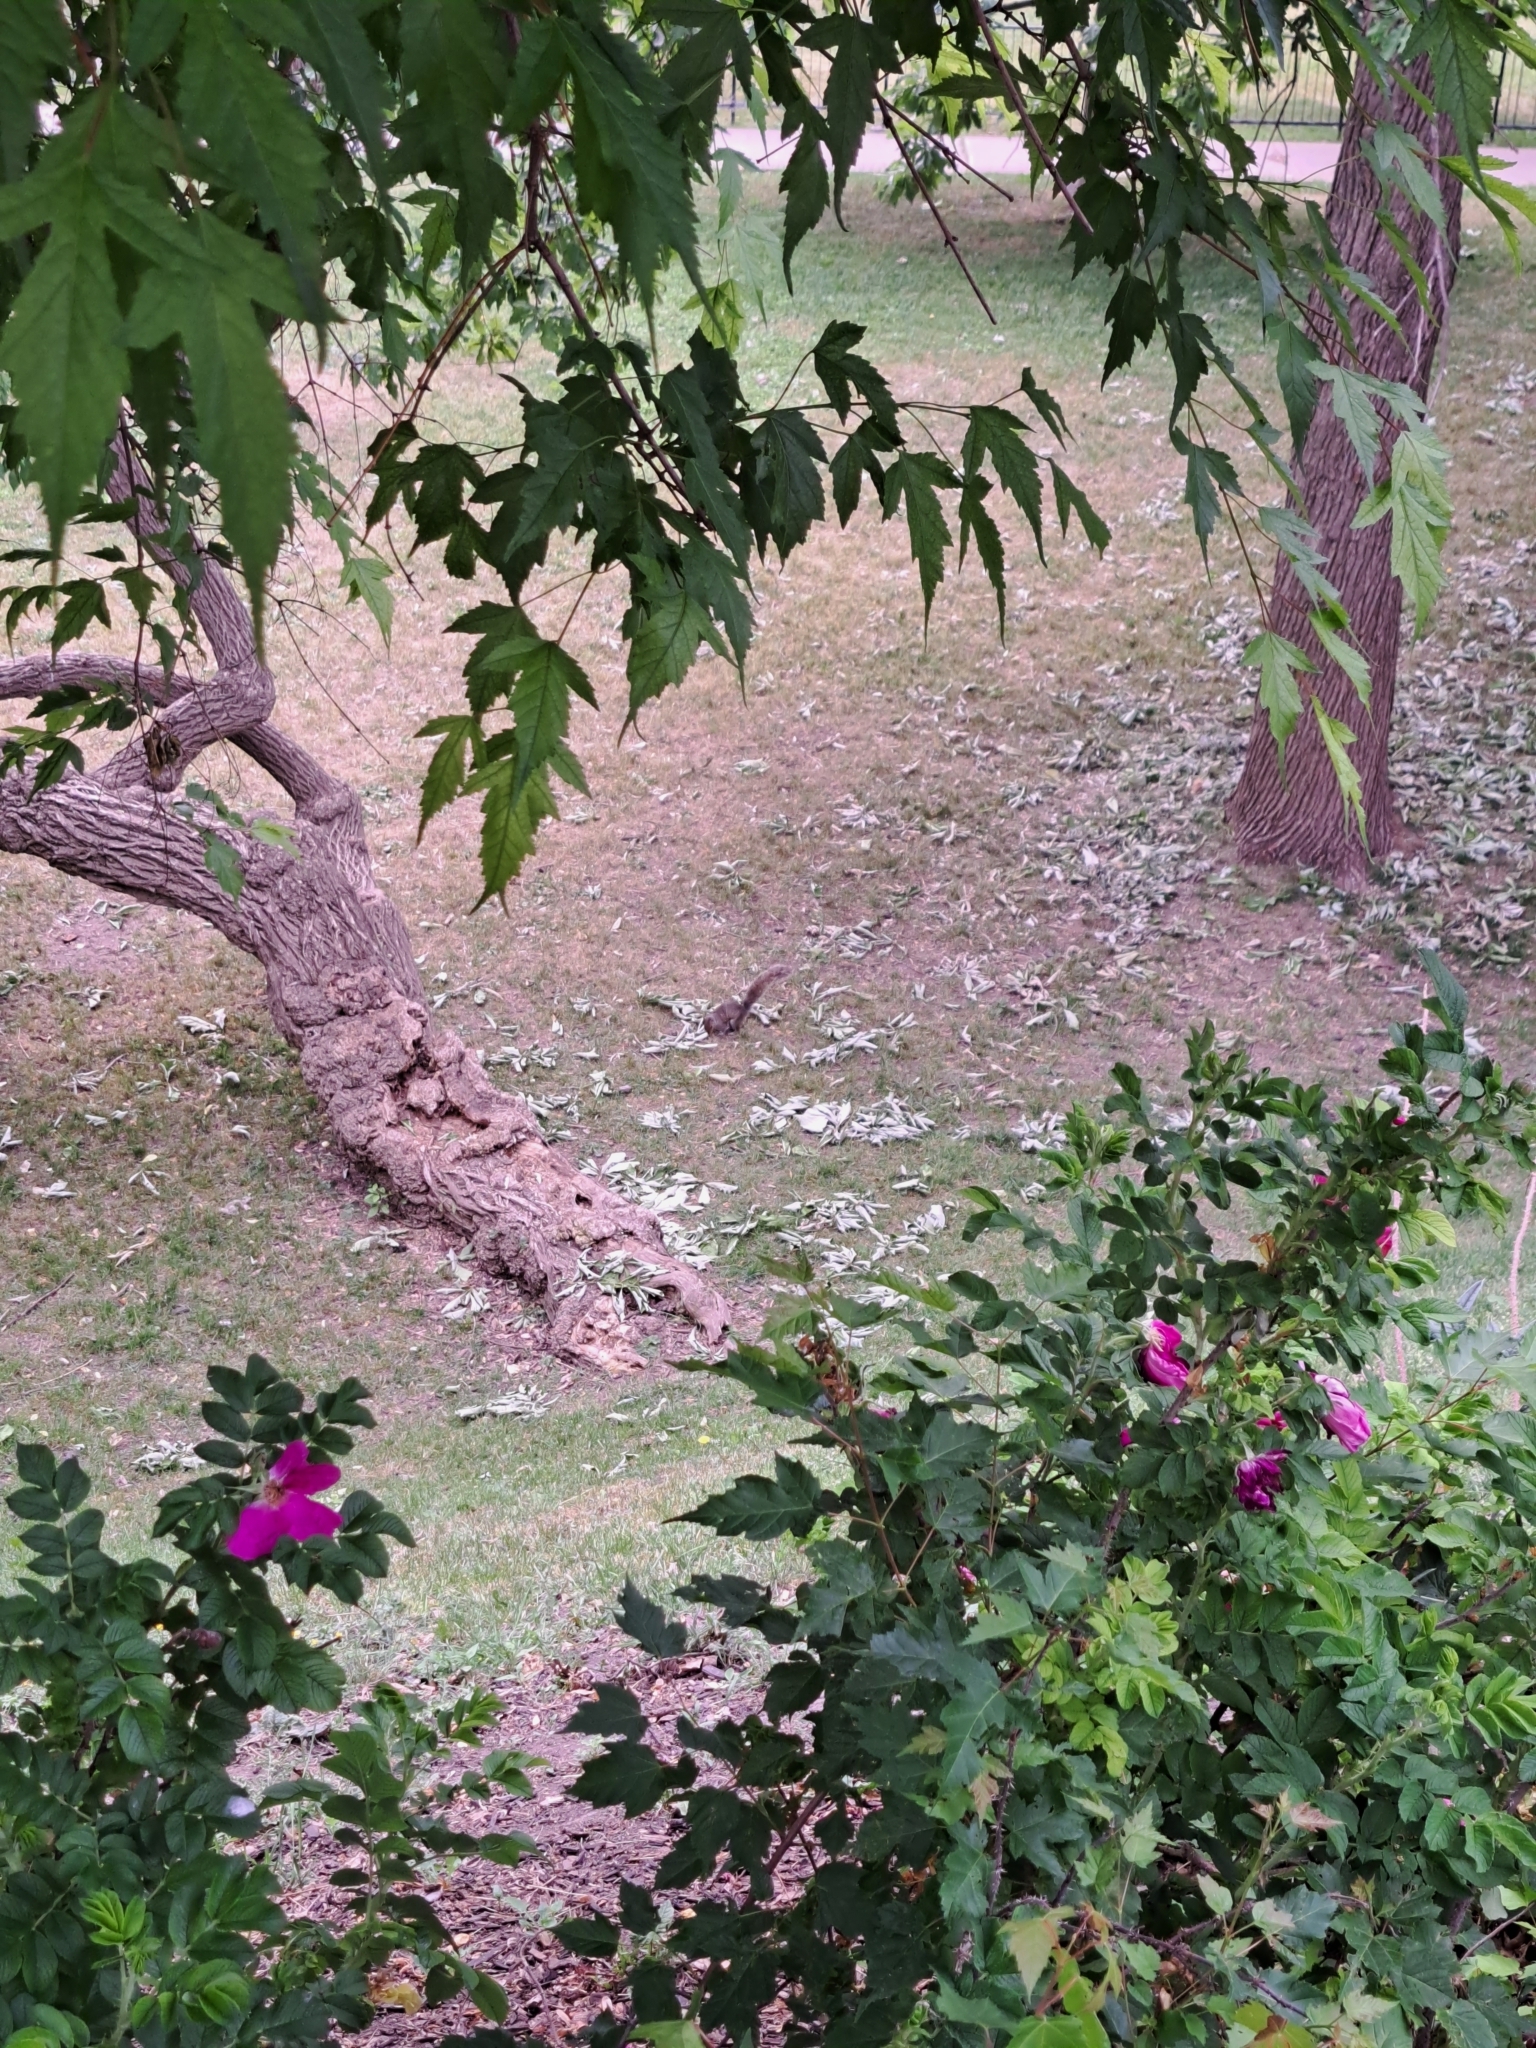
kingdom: Animalia
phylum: Chordata
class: Mammalia
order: Rodentia
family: Sciuridae
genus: Sciurus
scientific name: Sciurus carolinensis
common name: Eastern gray squirrel
